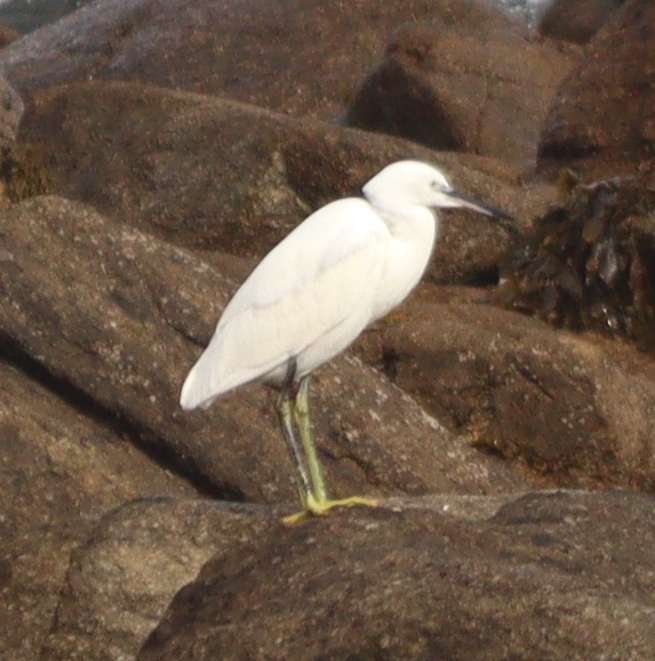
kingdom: Animalia
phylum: Chordata
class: Aves
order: Pelecaniformes
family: Ardeidae
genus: Egretta
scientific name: Egretta garzetta
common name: Little egret
